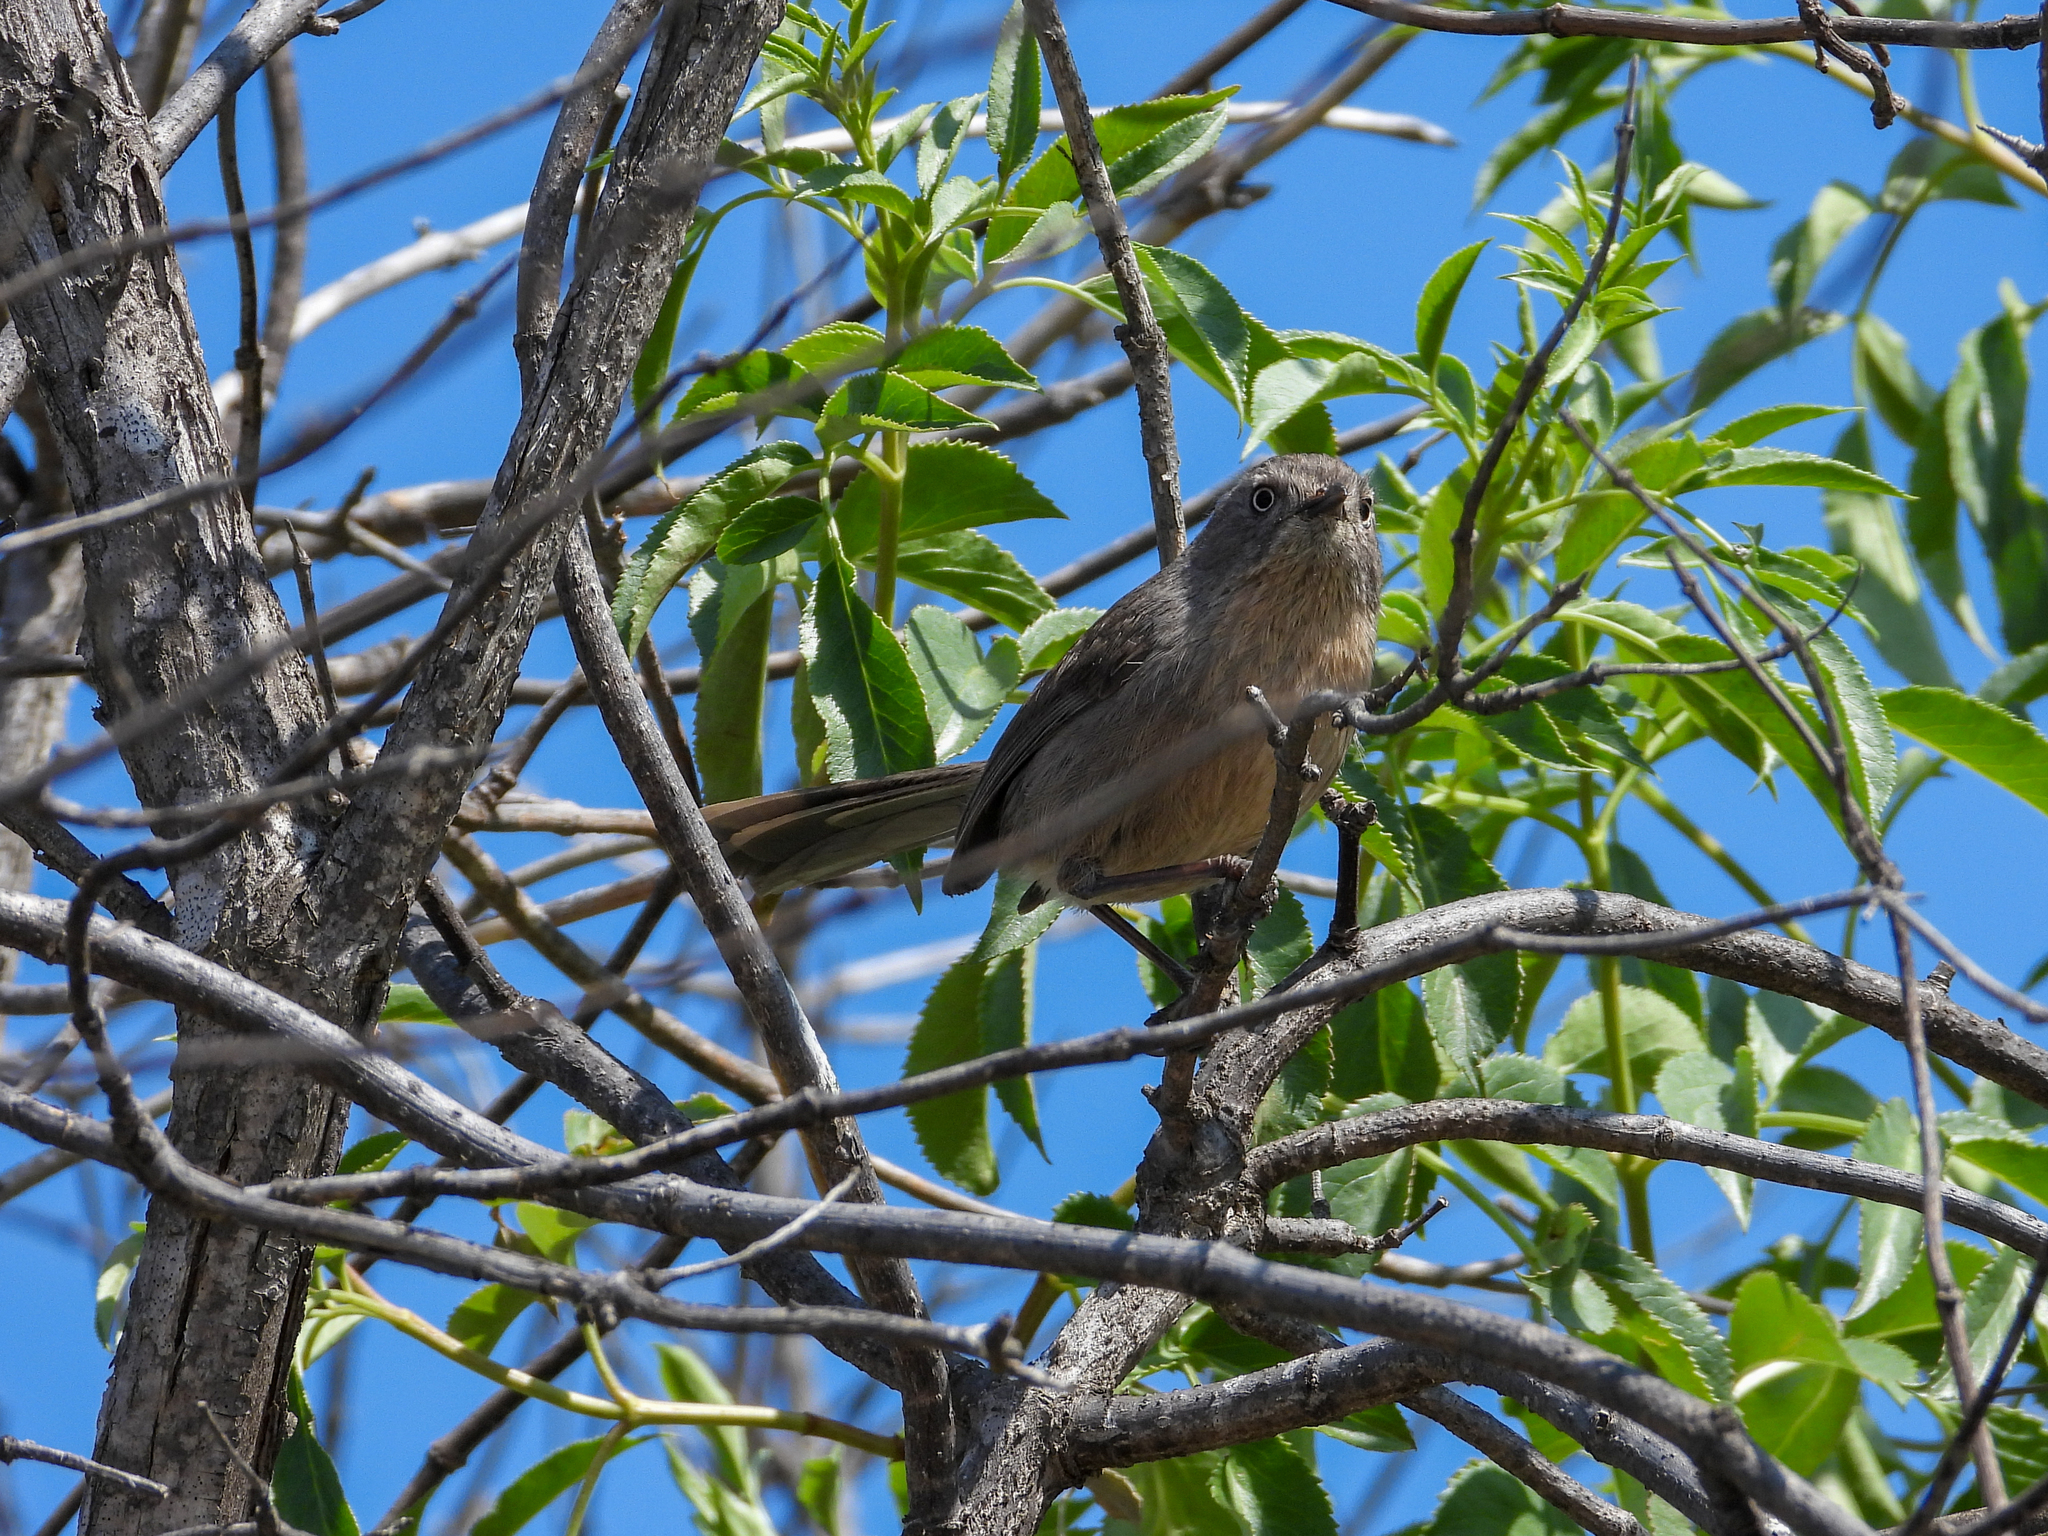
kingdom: Animalia
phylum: Chordata
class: Aves
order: Passeriformes
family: Sylviidae
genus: Chamaea
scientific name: Chamaea fasciata
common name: Wrentit
